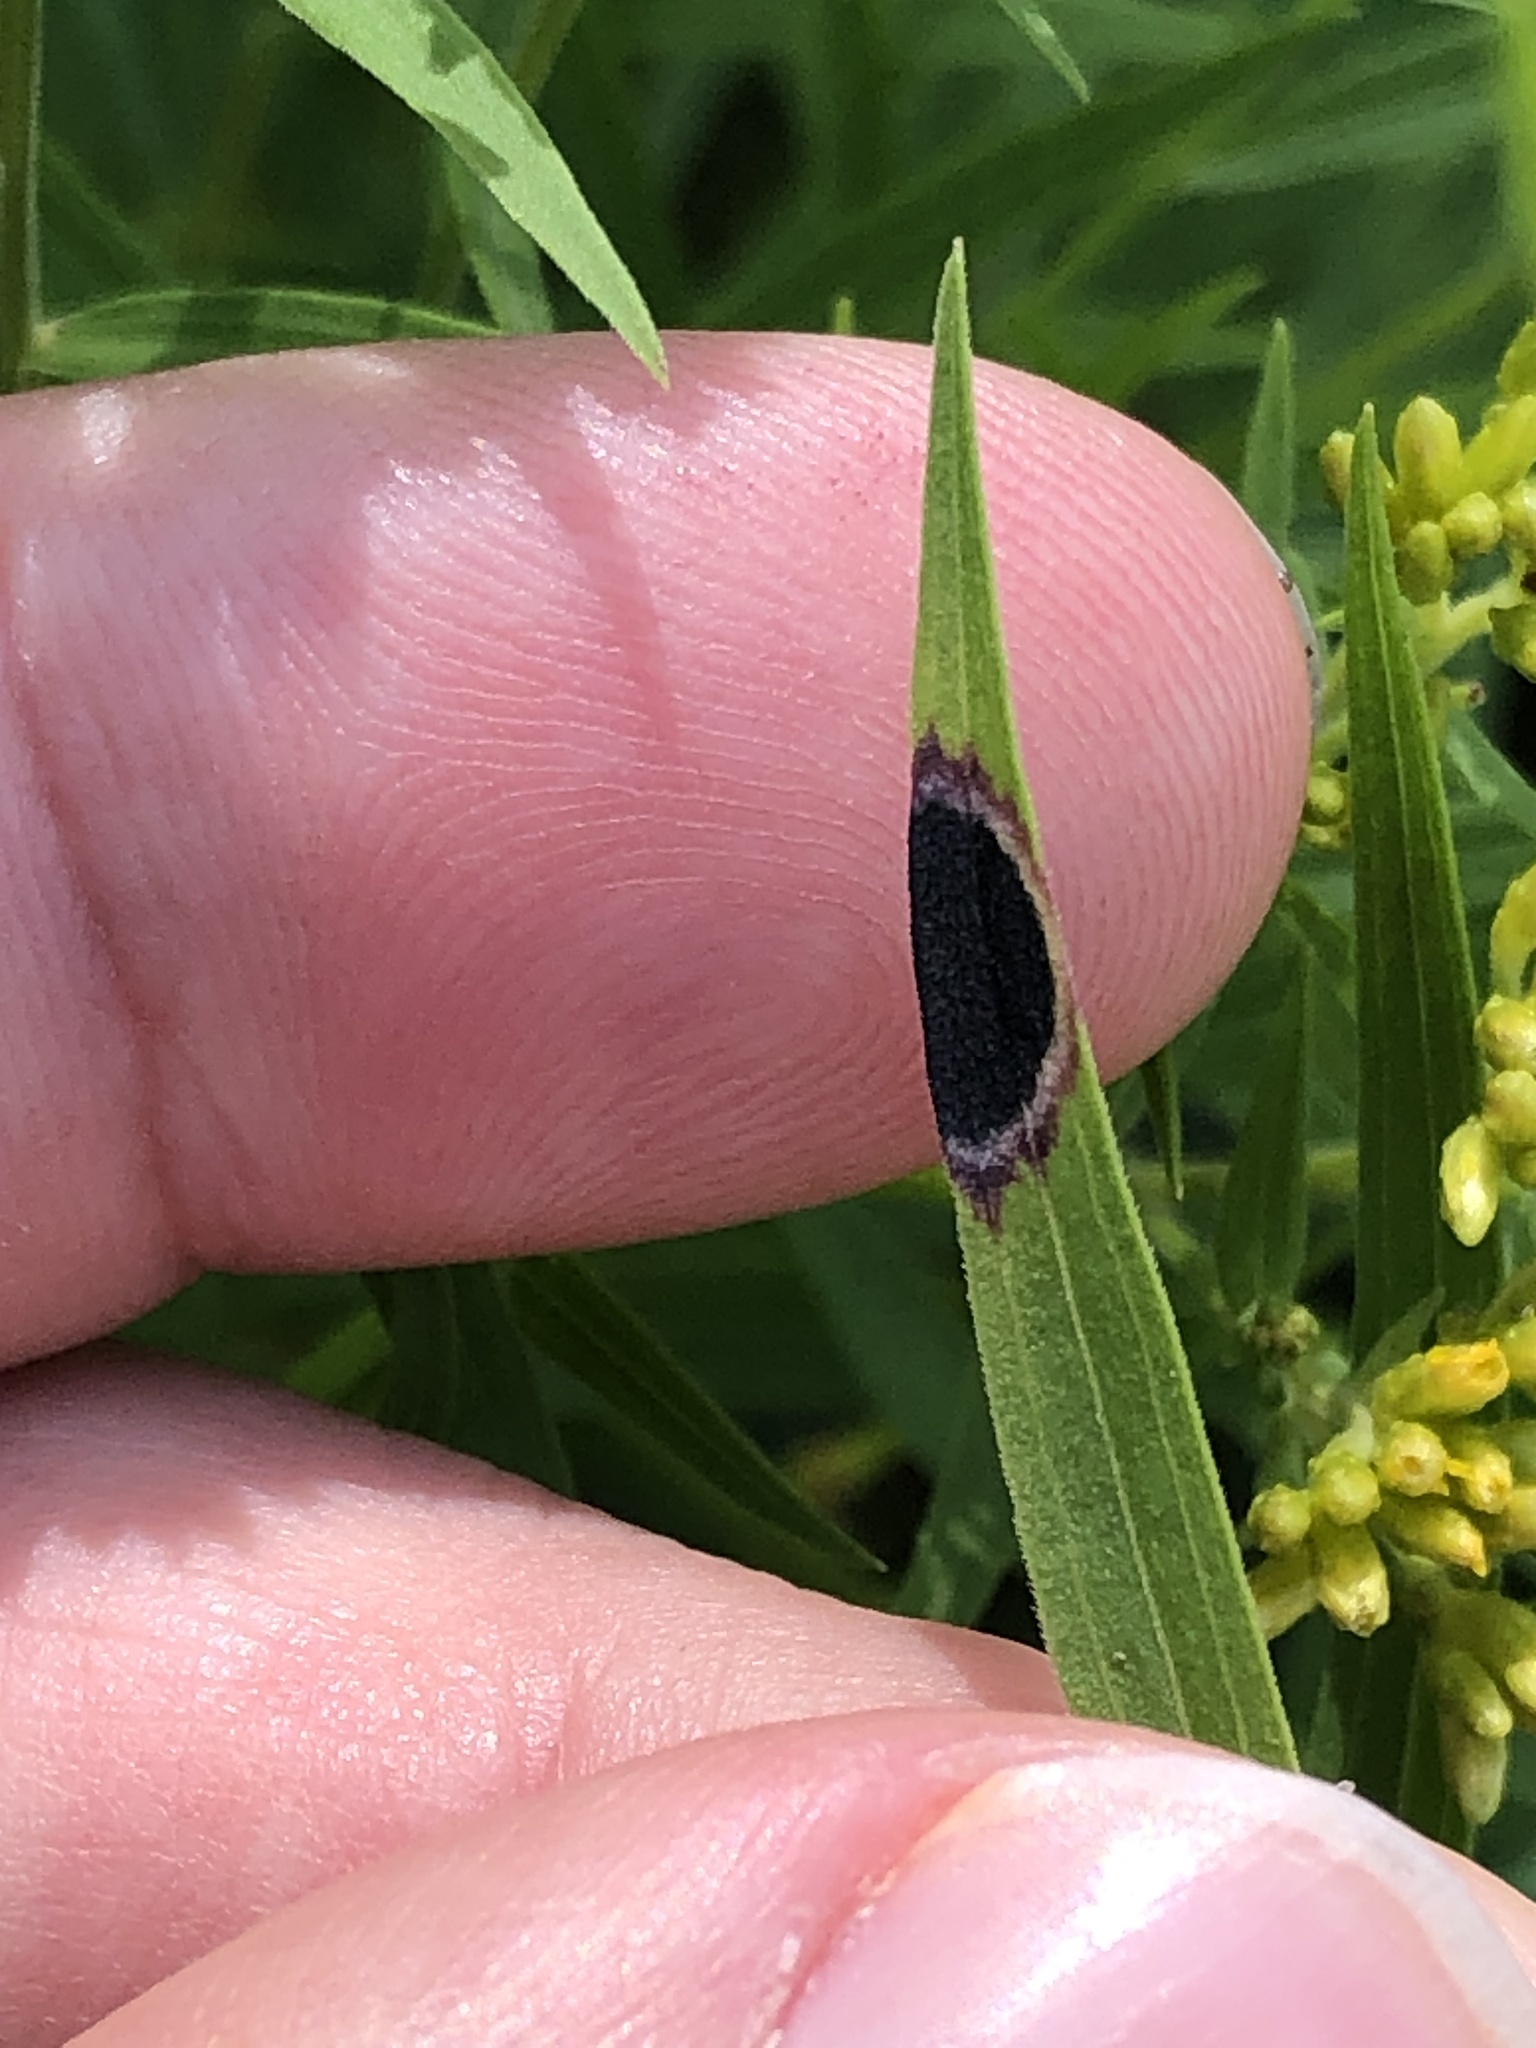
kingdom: Animalia
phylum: Arthropoda
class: Insecta
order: Diptera
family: Cecidomyiidae
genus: Asteromyia
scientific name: Asteromyia euthamiae
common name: Euthamia leaf gall midge
